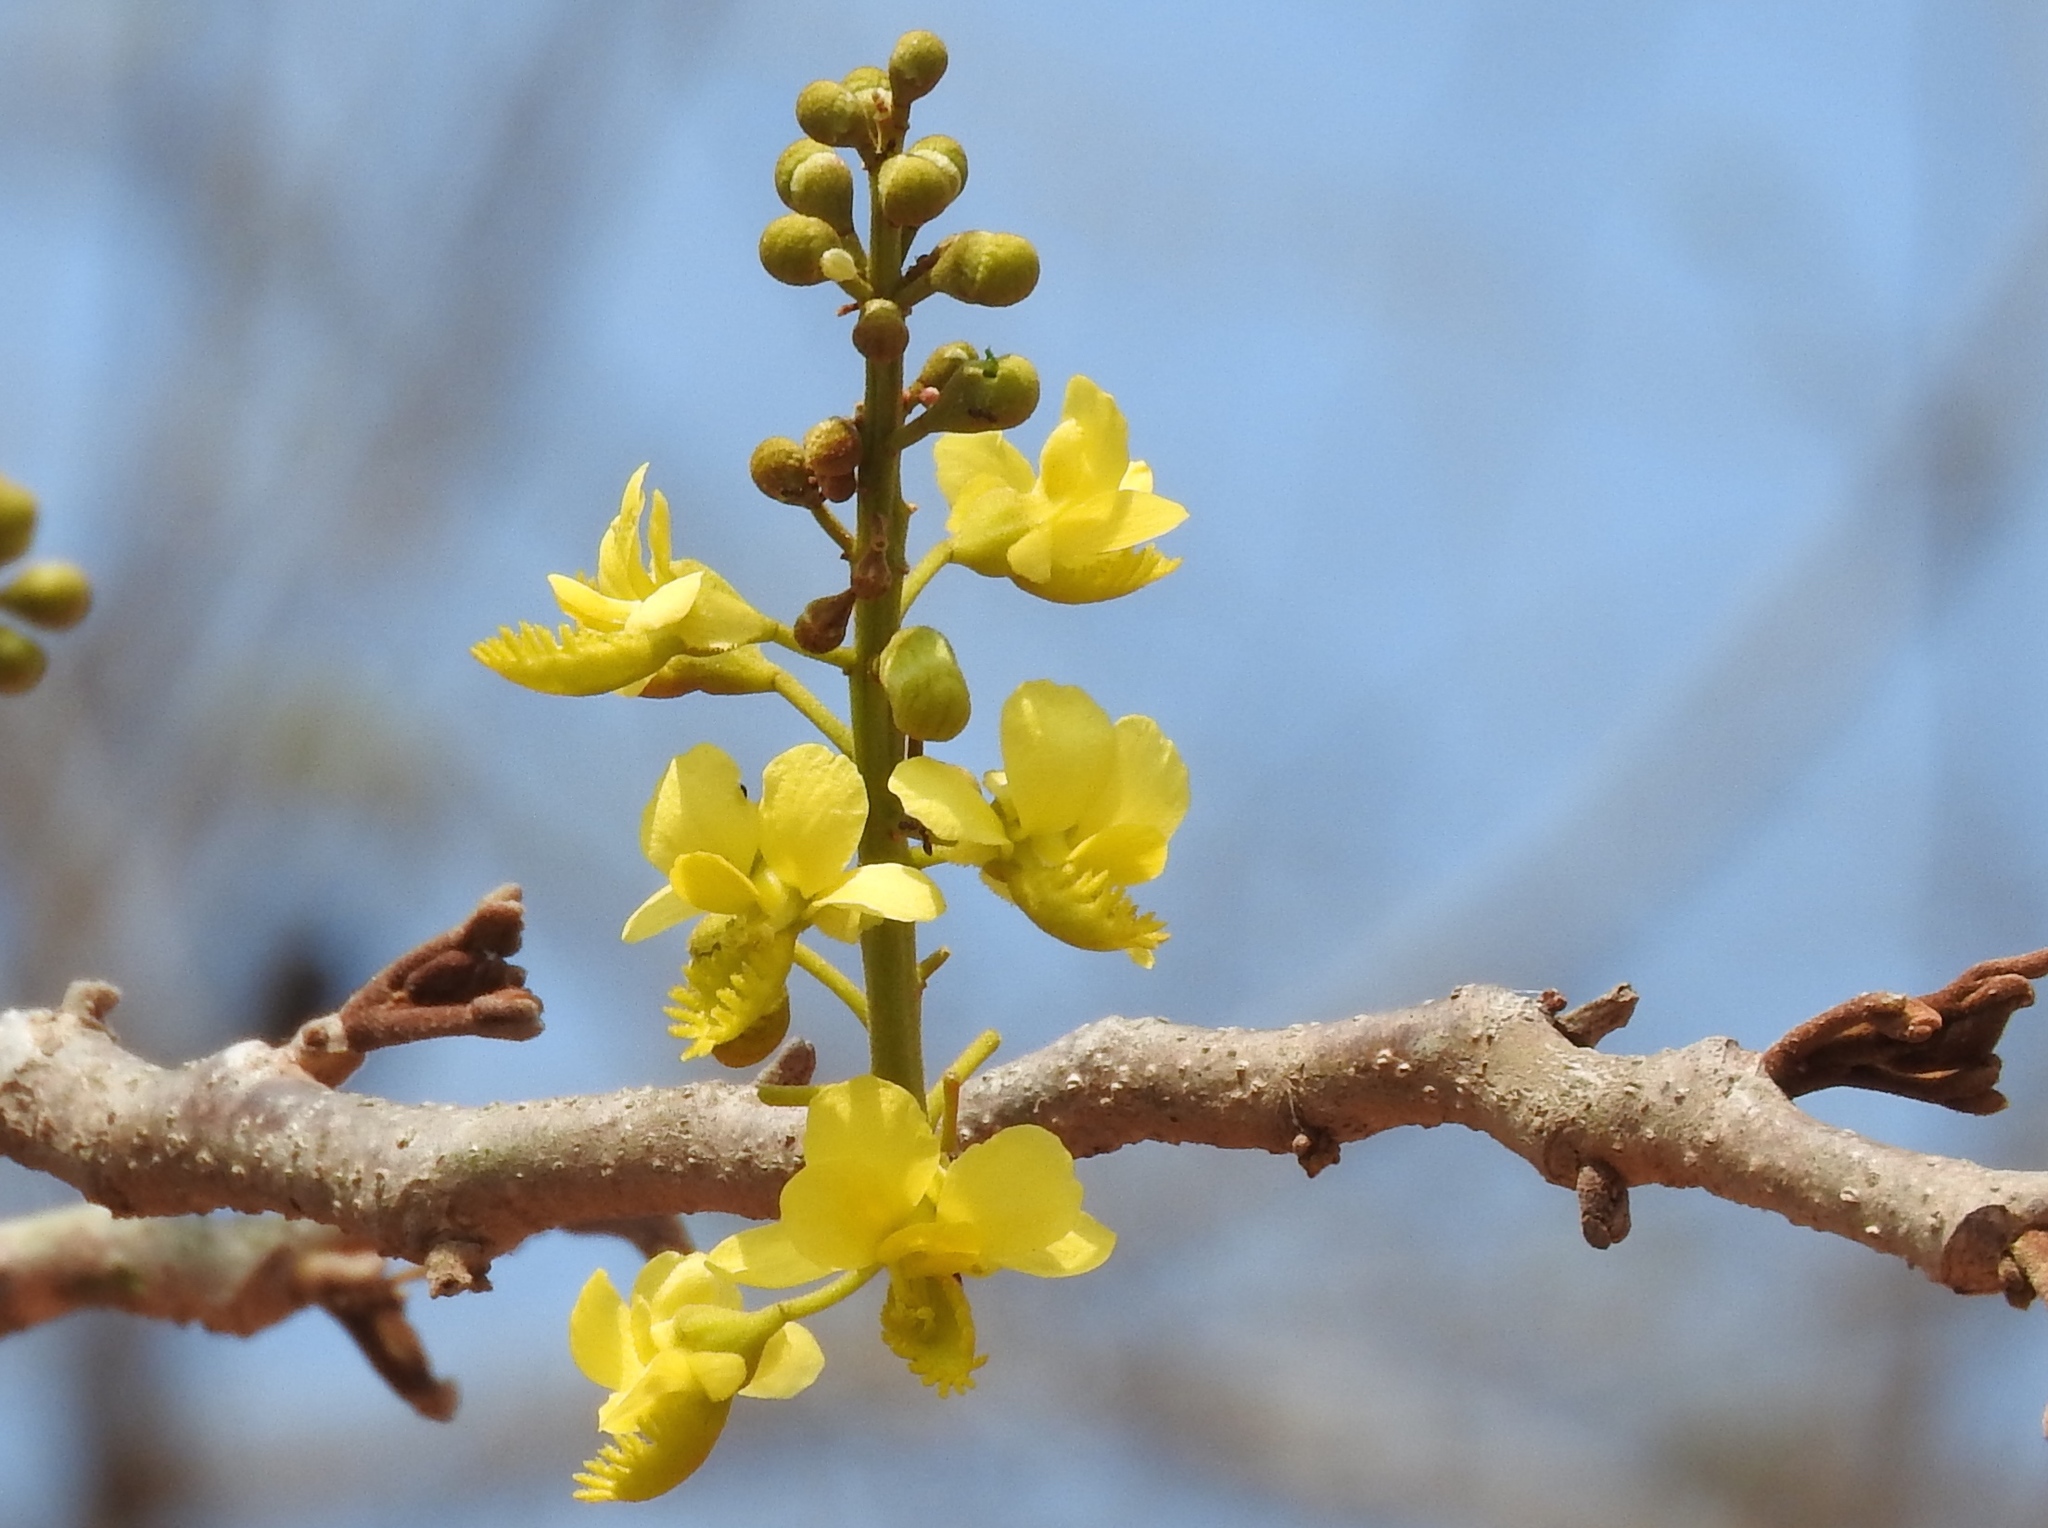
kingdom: Plantae
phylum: Tracheophyta
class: Magnoliopsida
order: Fabales
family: Fabaceae
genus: Coulteria
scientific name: Coulteria platyloba
